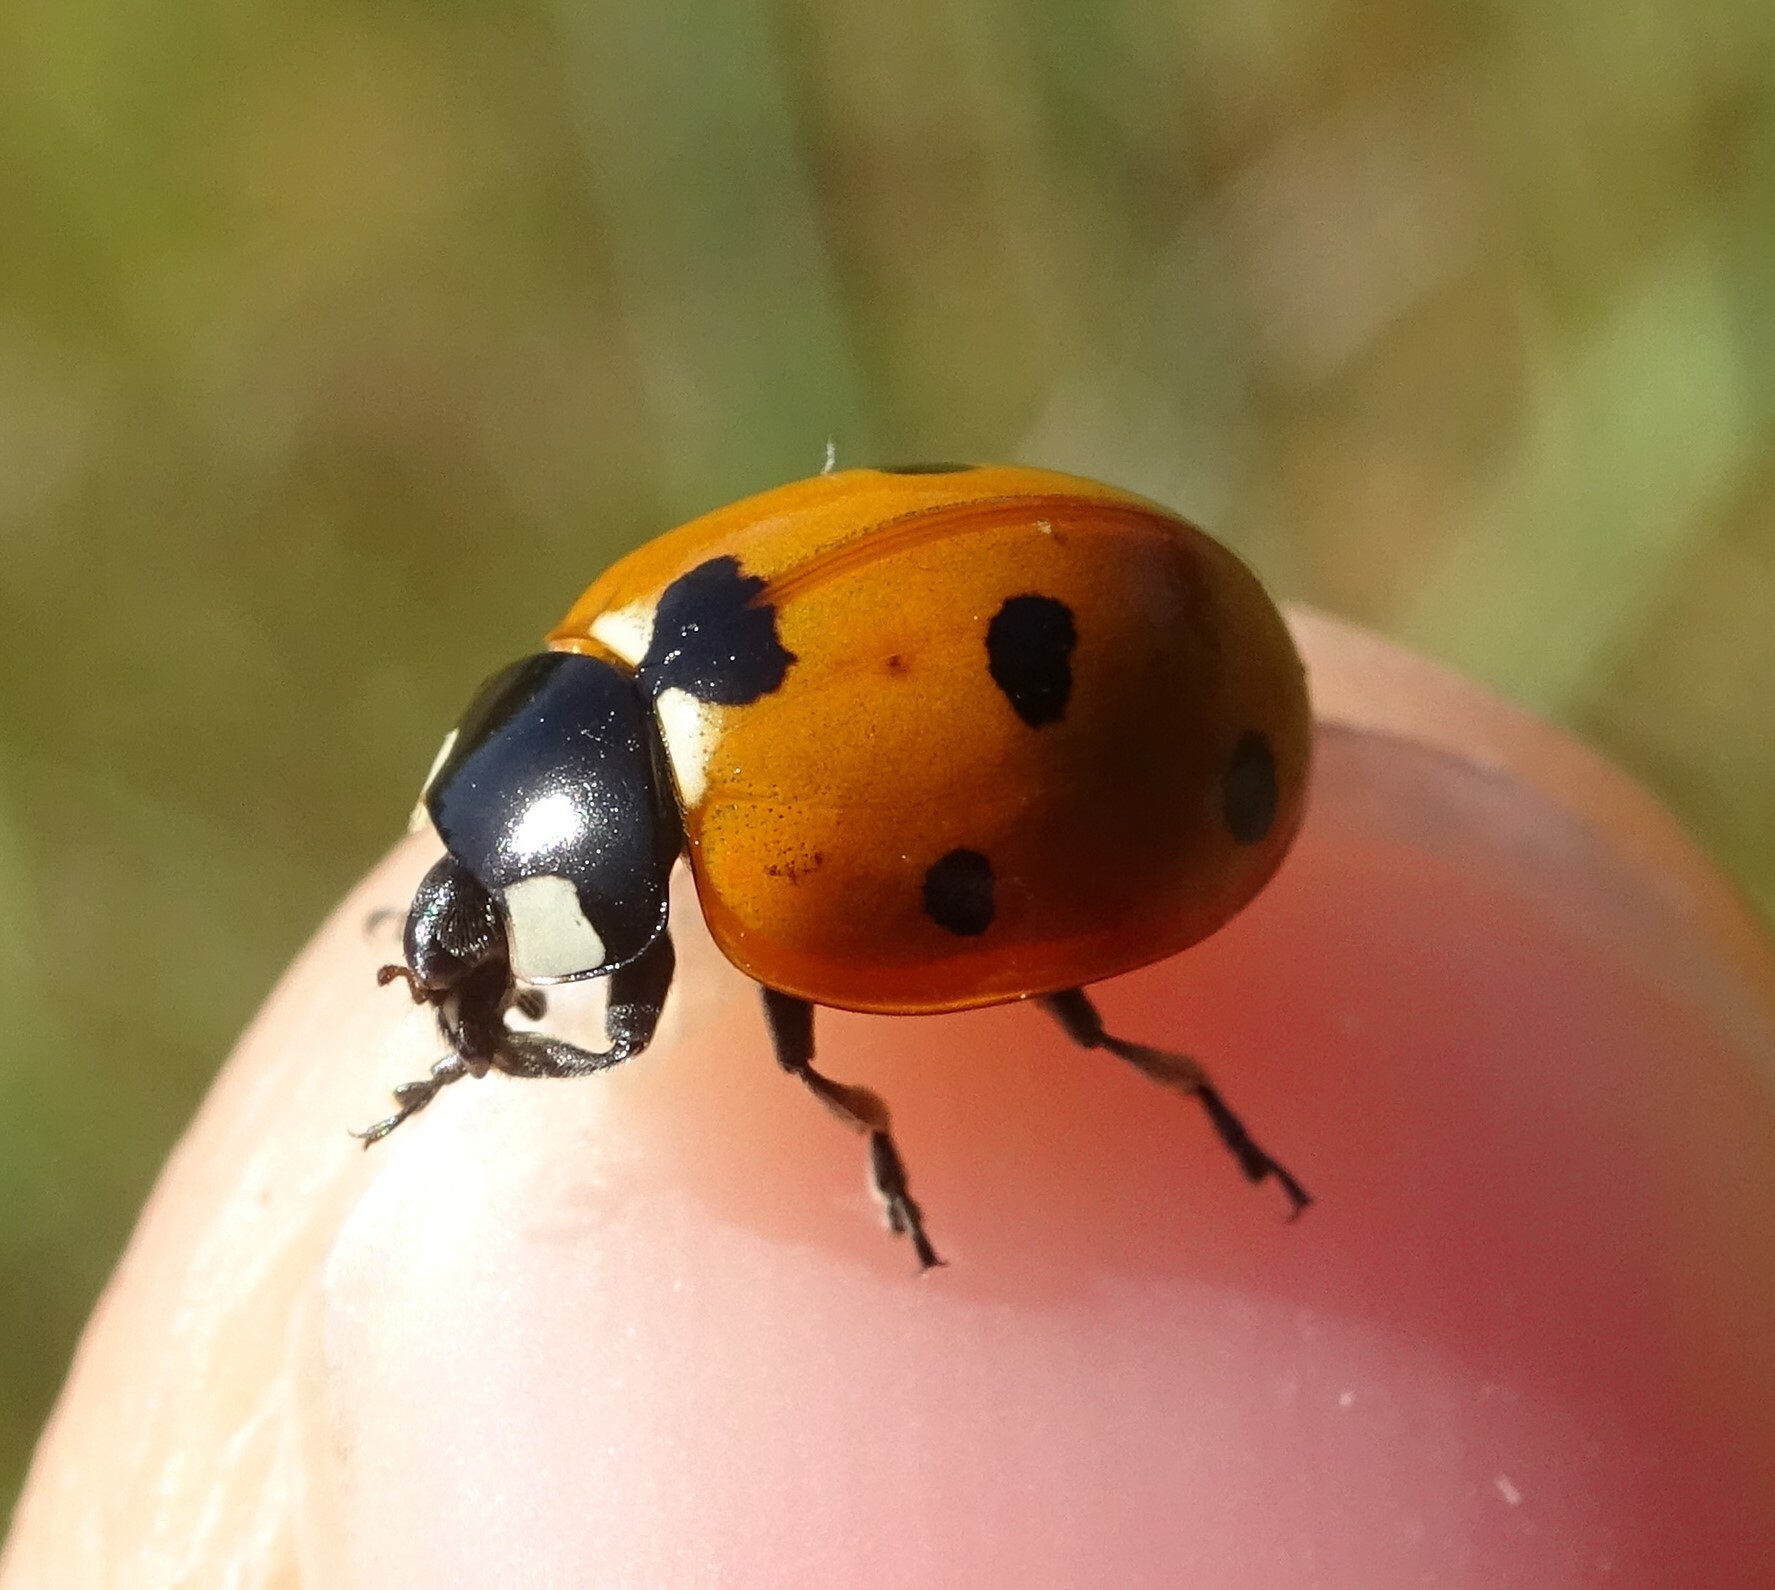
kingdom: Animalia
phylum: Arthropoda
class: Insecta
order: Coleoptera
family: Coccinellidae
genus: Coccinella
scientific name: Coccinella septempunctata
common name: Sevenspotted lady beetle
